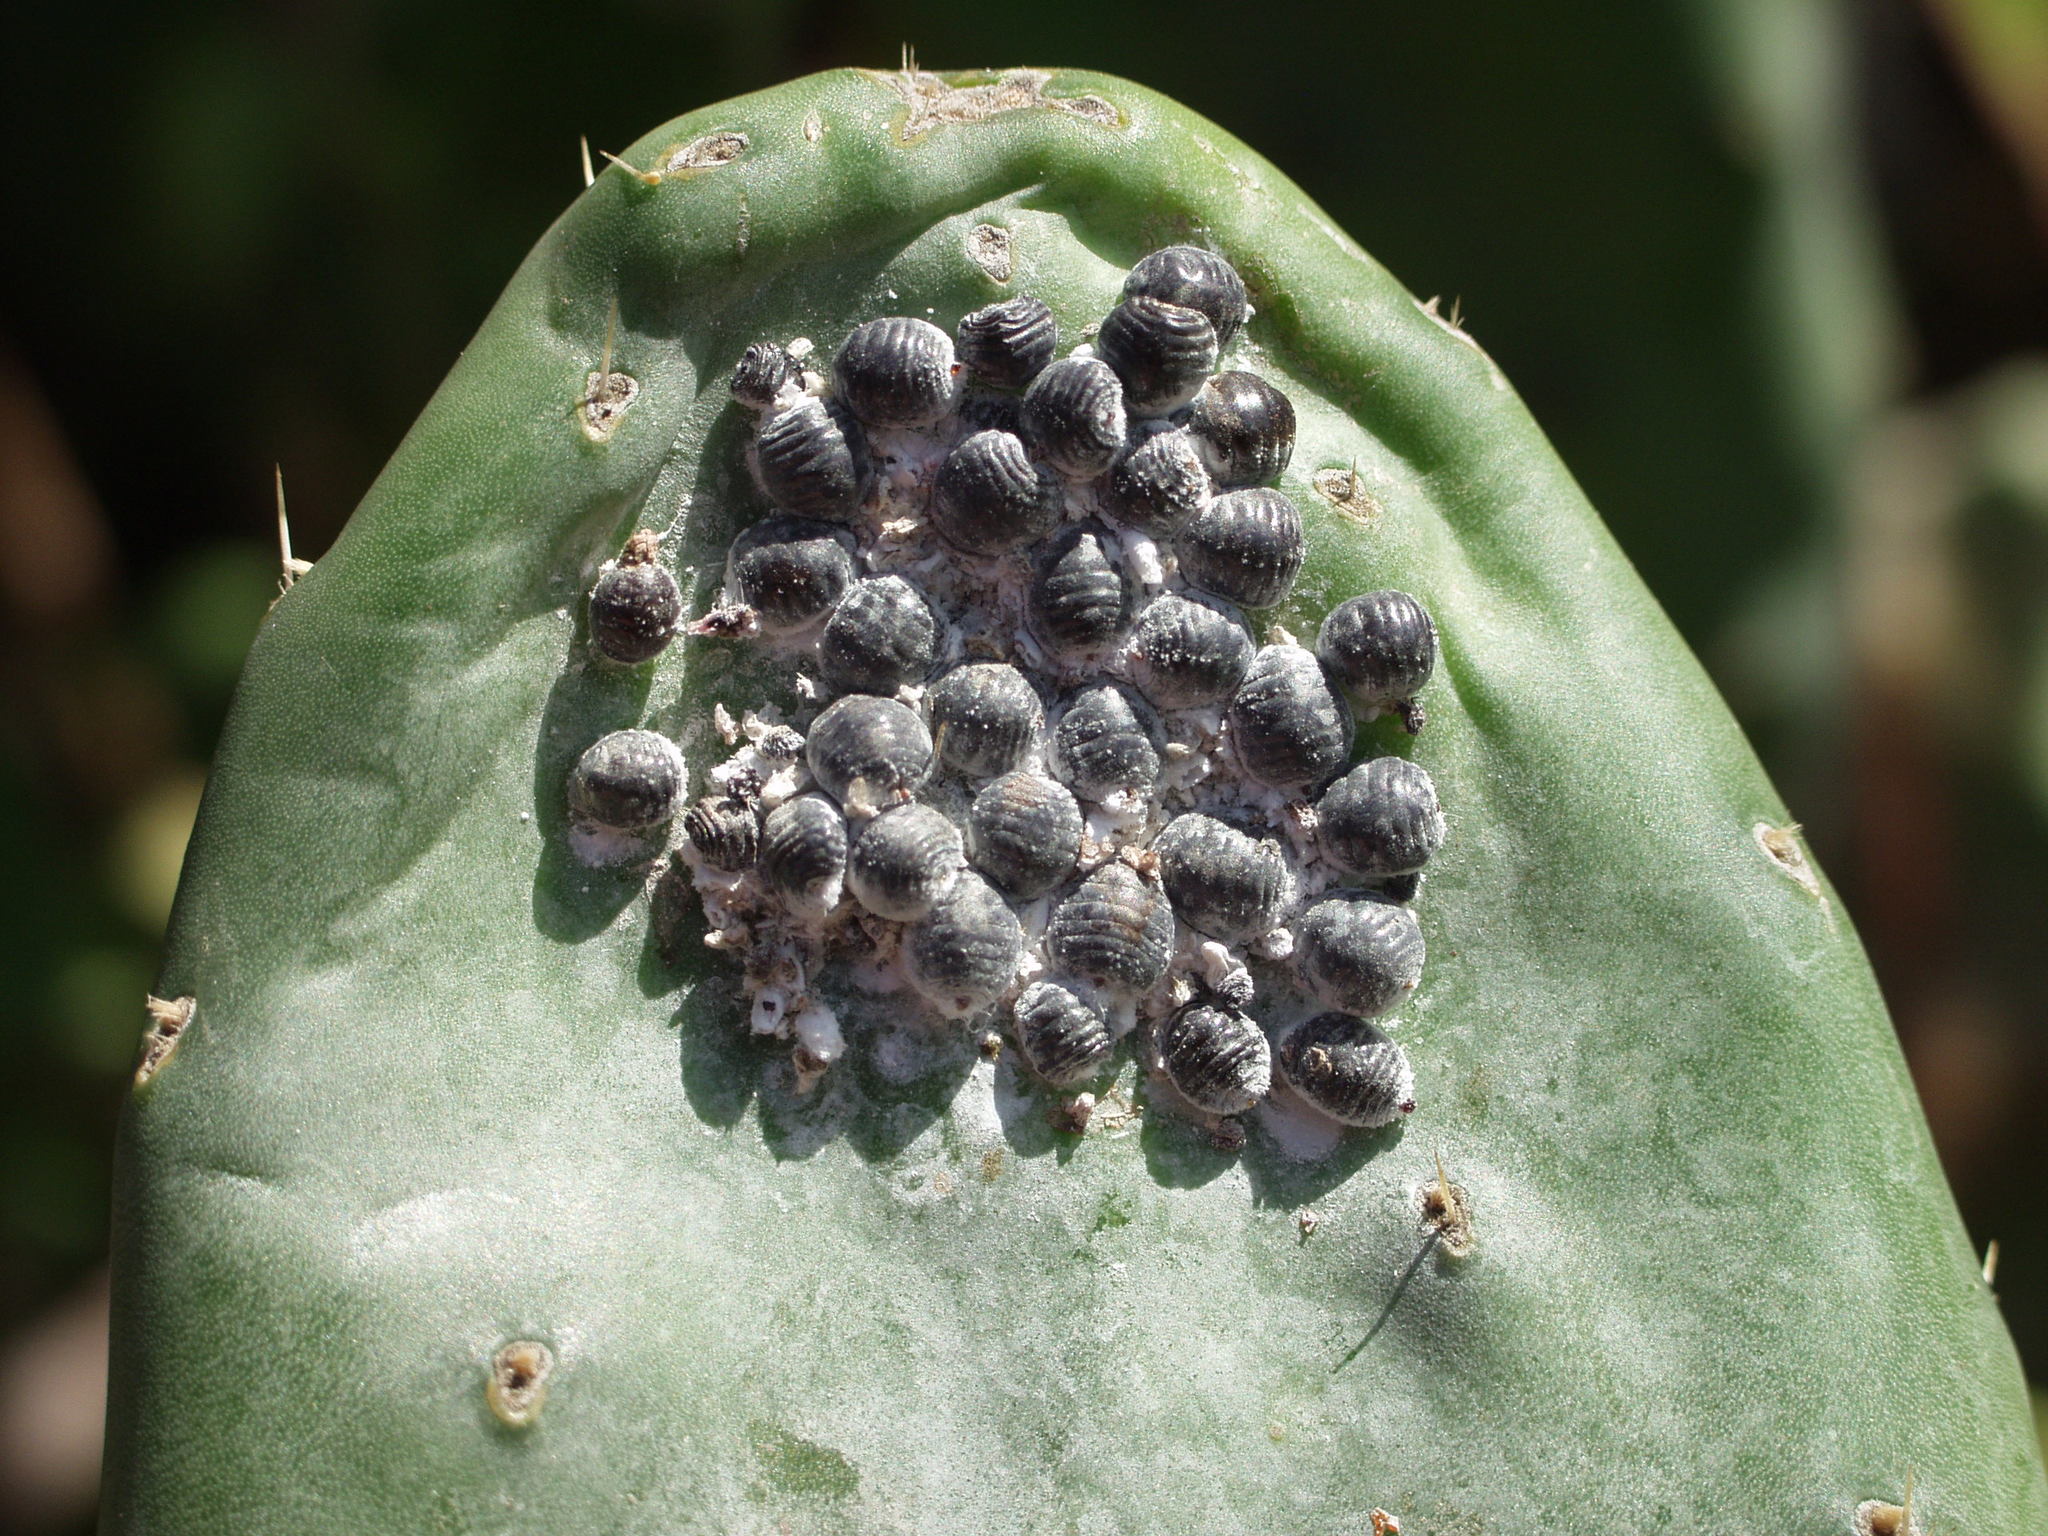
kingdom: Animalia
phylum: Arthropoda
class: Insecta
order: Hemiptera
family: Dactylopiidae
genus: Dactylopius
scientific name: Dactylopius coccus
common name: Cochineal
